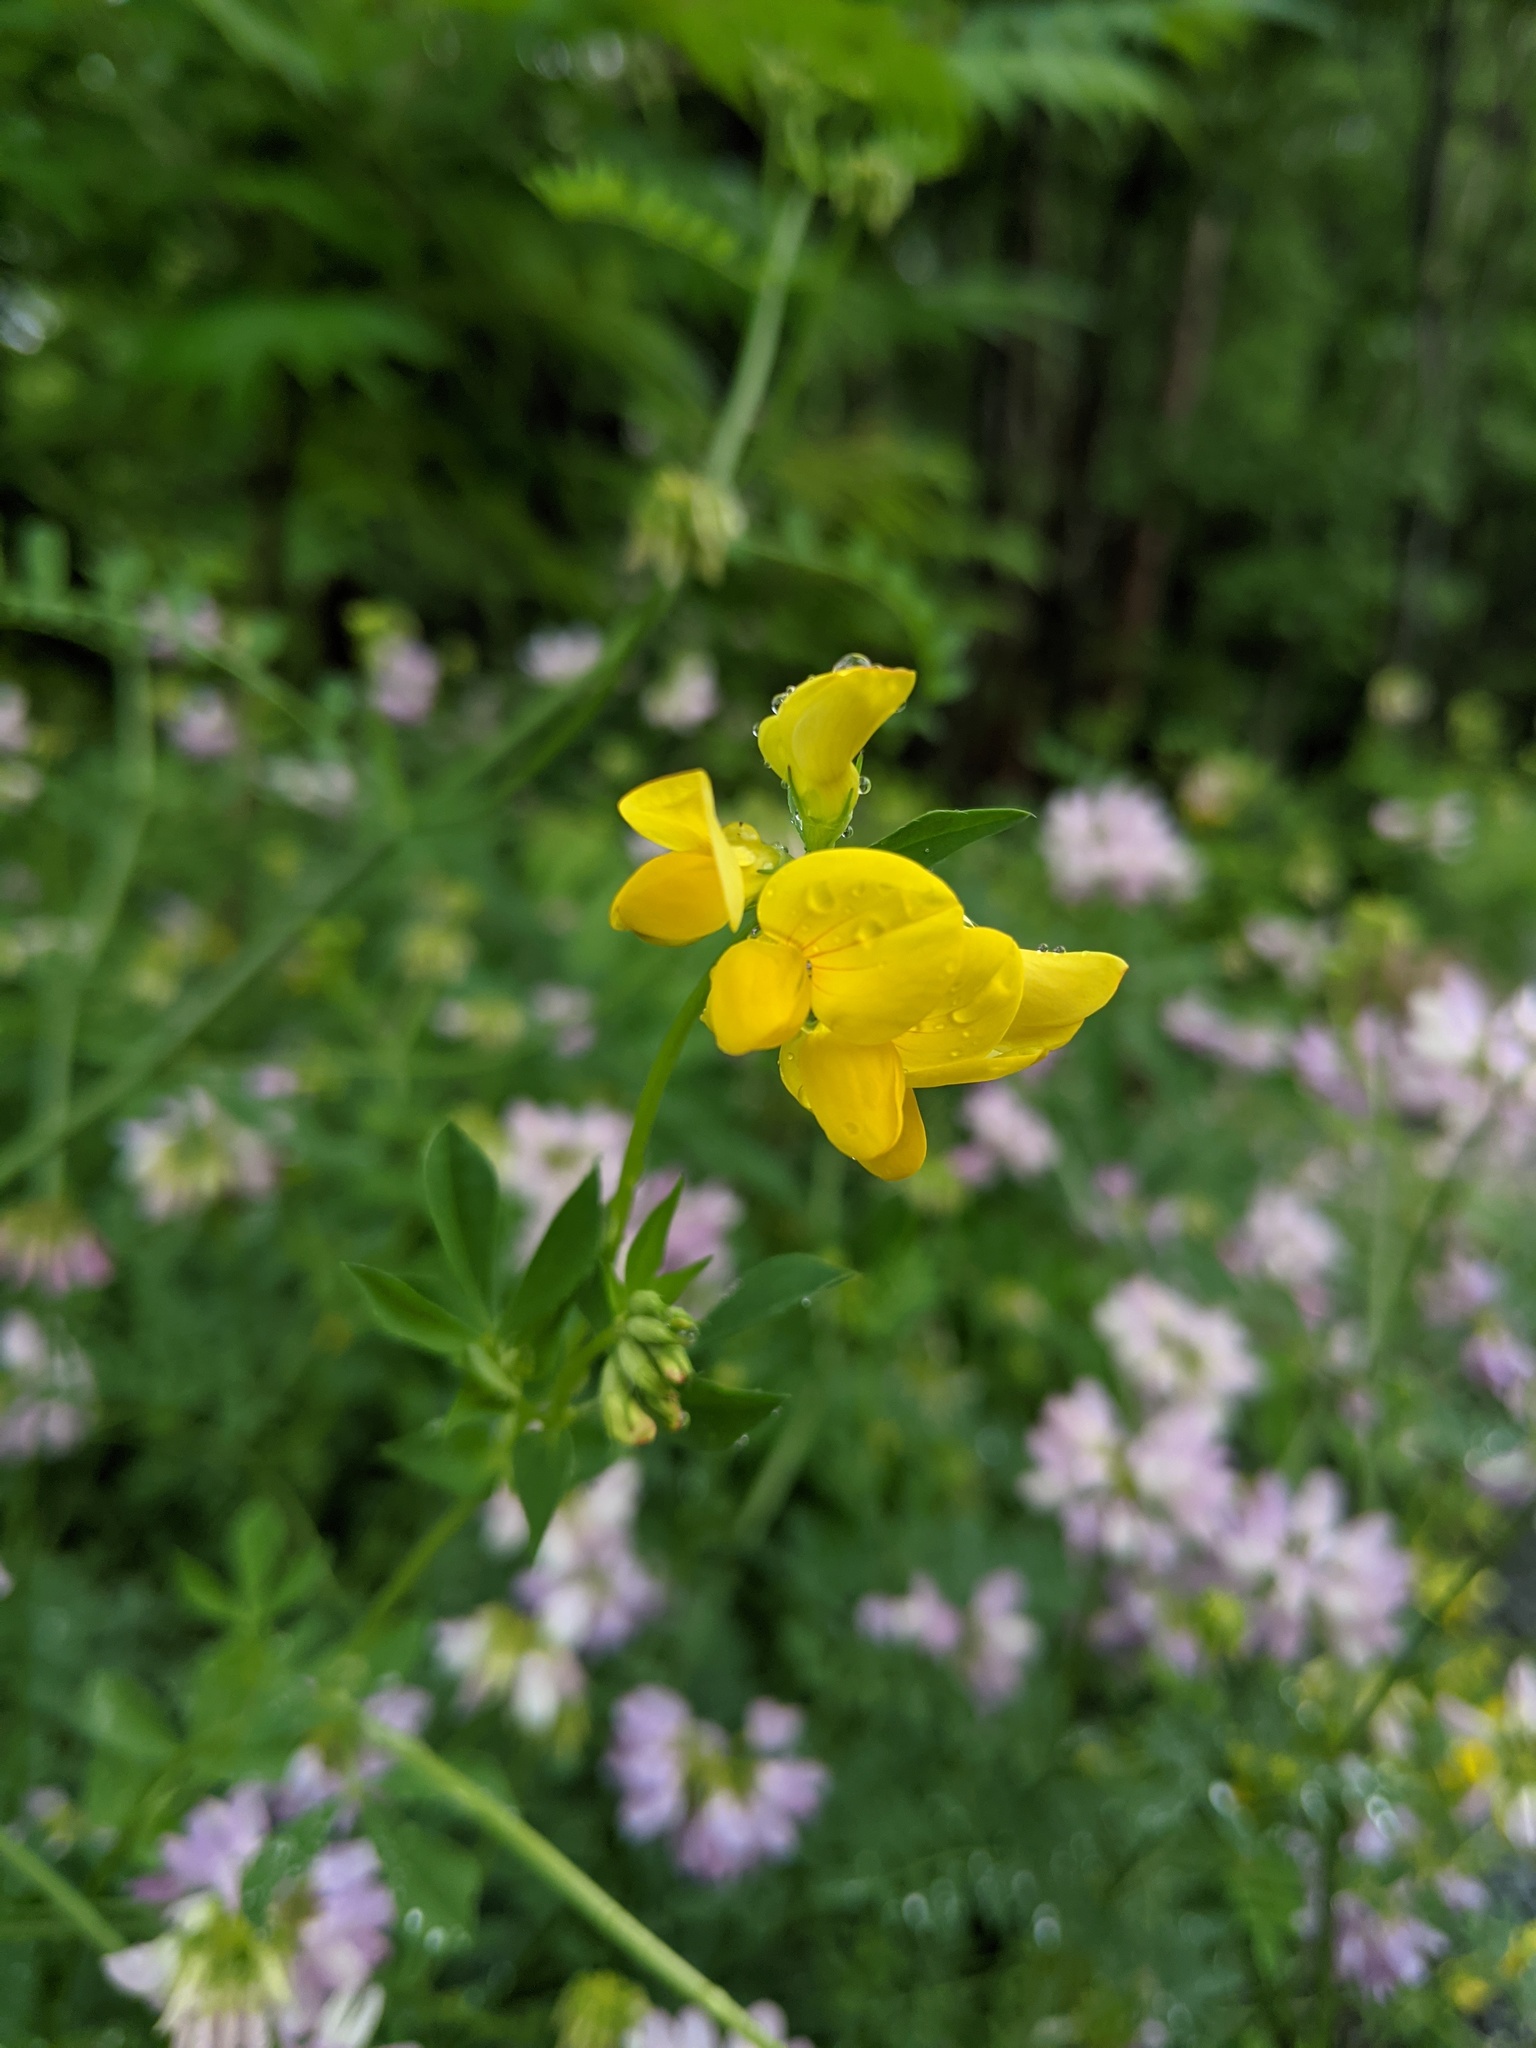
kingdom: Plantae
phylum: Tracheophyta
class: Magnoliopsida
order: Fabales
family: Fabaceae
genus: Lotus
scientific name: Lotus corniculatus
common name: Common bird's-foot-trefoil
